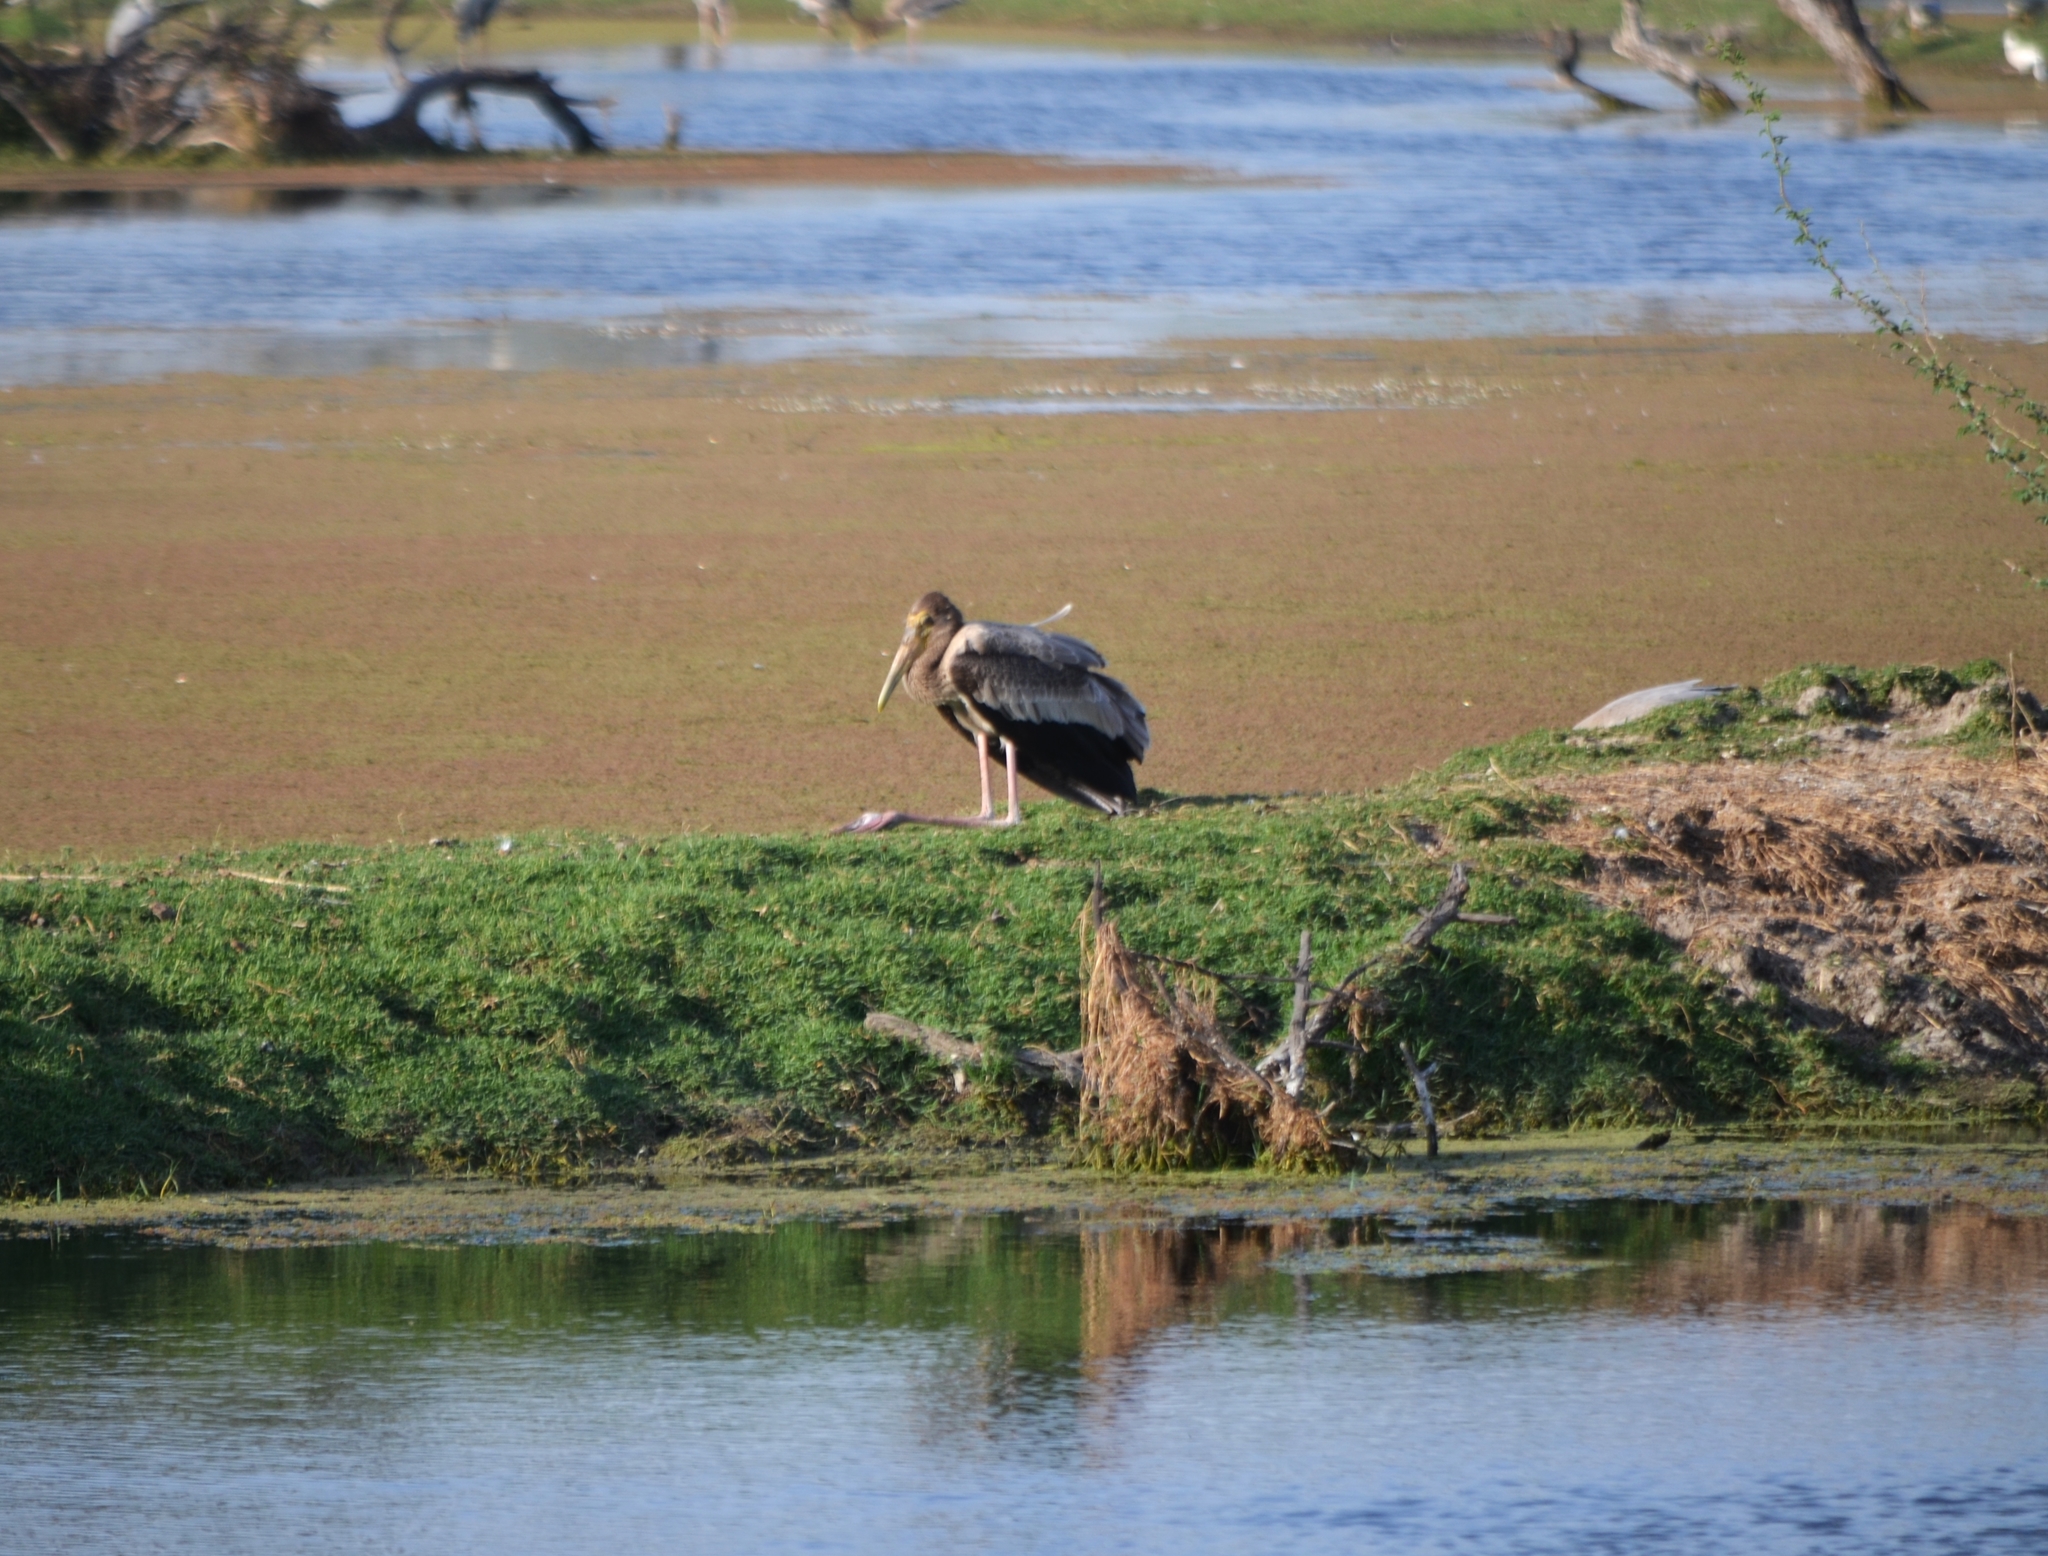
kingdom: Animalia
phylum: Chordata
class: Aves
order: Ciconiiformes
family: Ciconiidae
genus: Mycteria
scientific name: Mycteria leucocephala
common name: Painted stork
